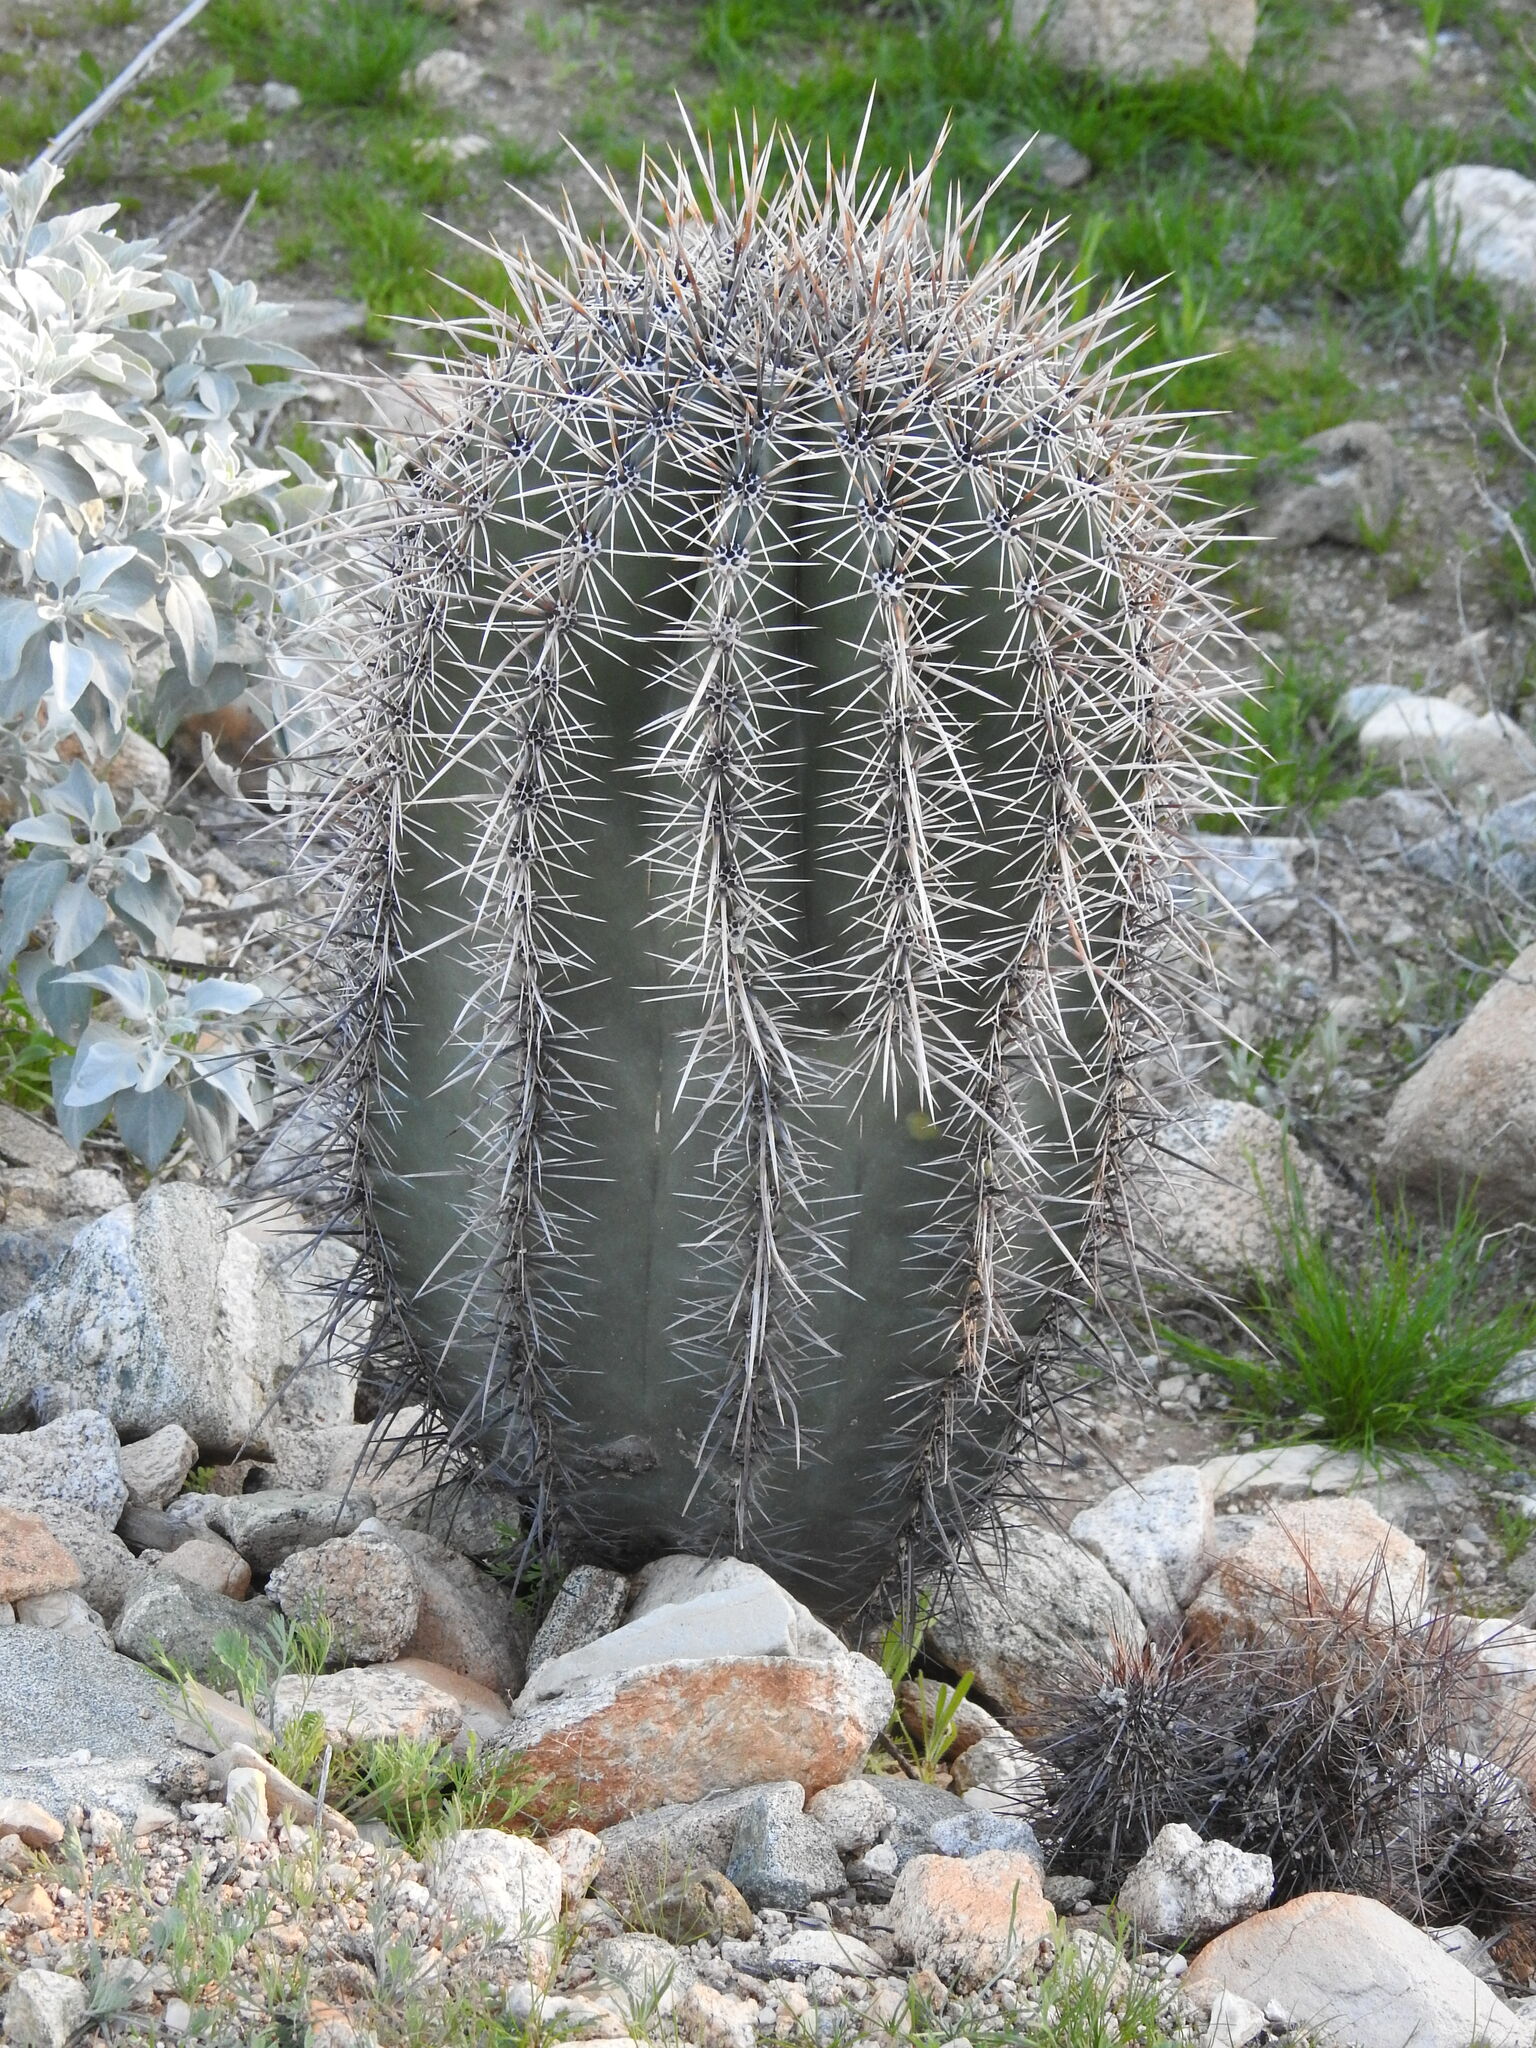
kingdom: Plantae
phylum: Tracheophyta
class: Magnoliopsida
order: Caryophyllales
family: Cactaceae
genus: Carnegiea
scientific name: Carnegiea gigantea
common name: Saguaro
